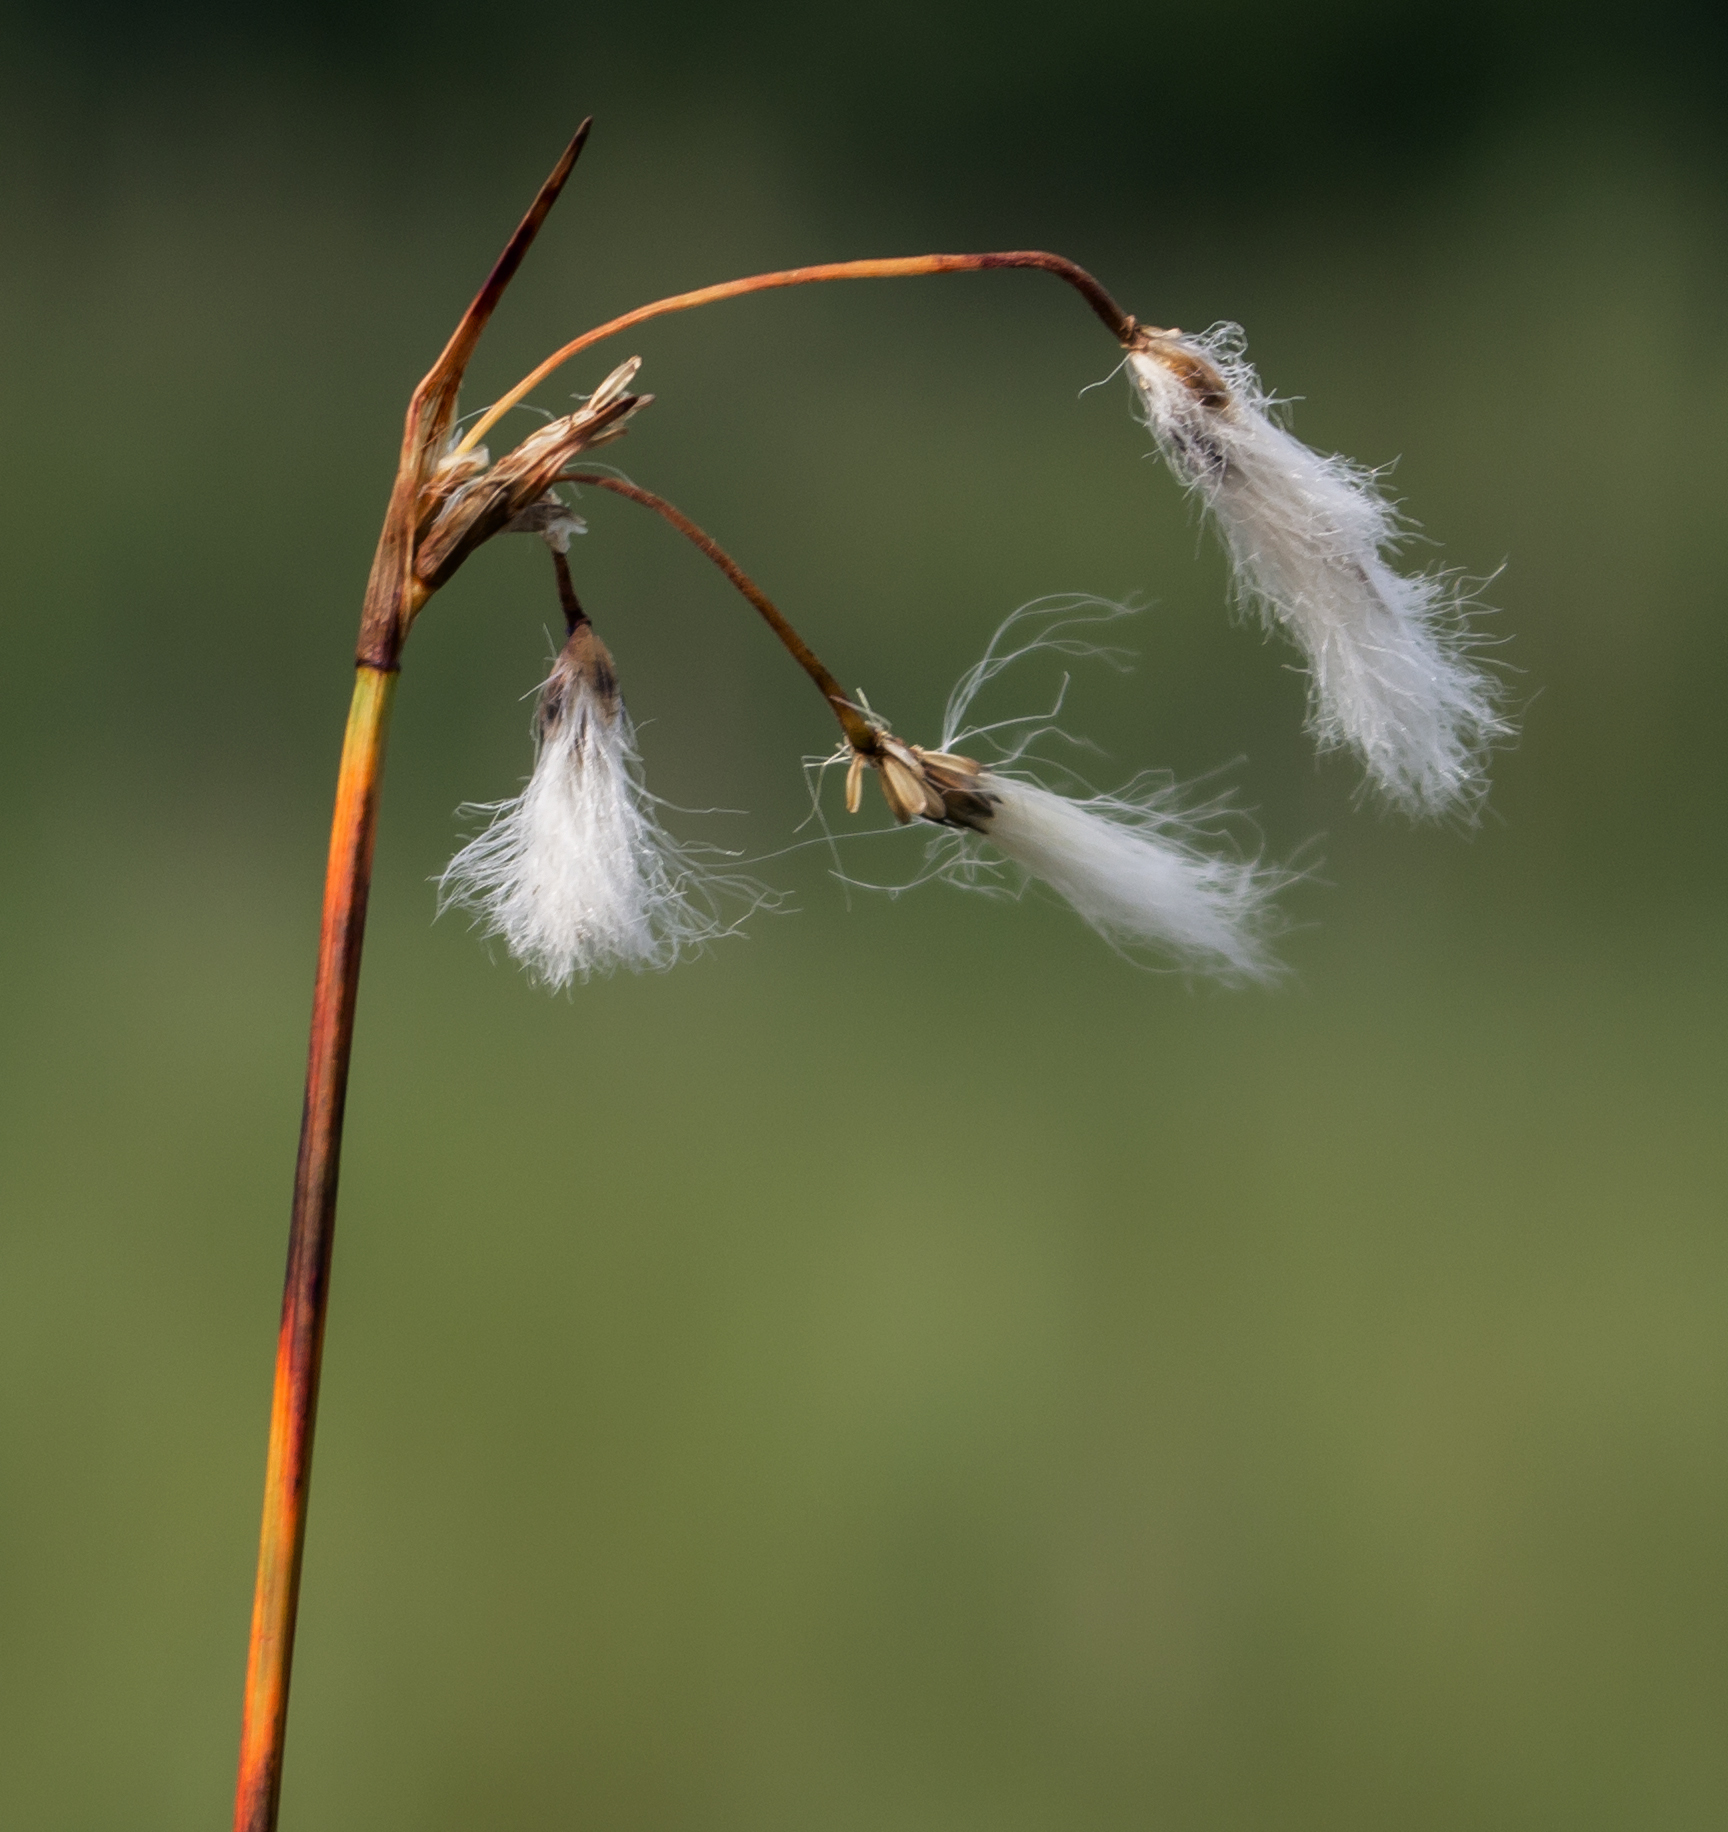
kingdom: Plantae
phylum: Tracheophyta
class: Liliopsida
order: Poales
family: Cyperaceae
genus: Eriophorum
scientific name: Eriophorum angustifolium
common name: Common cottongrass
